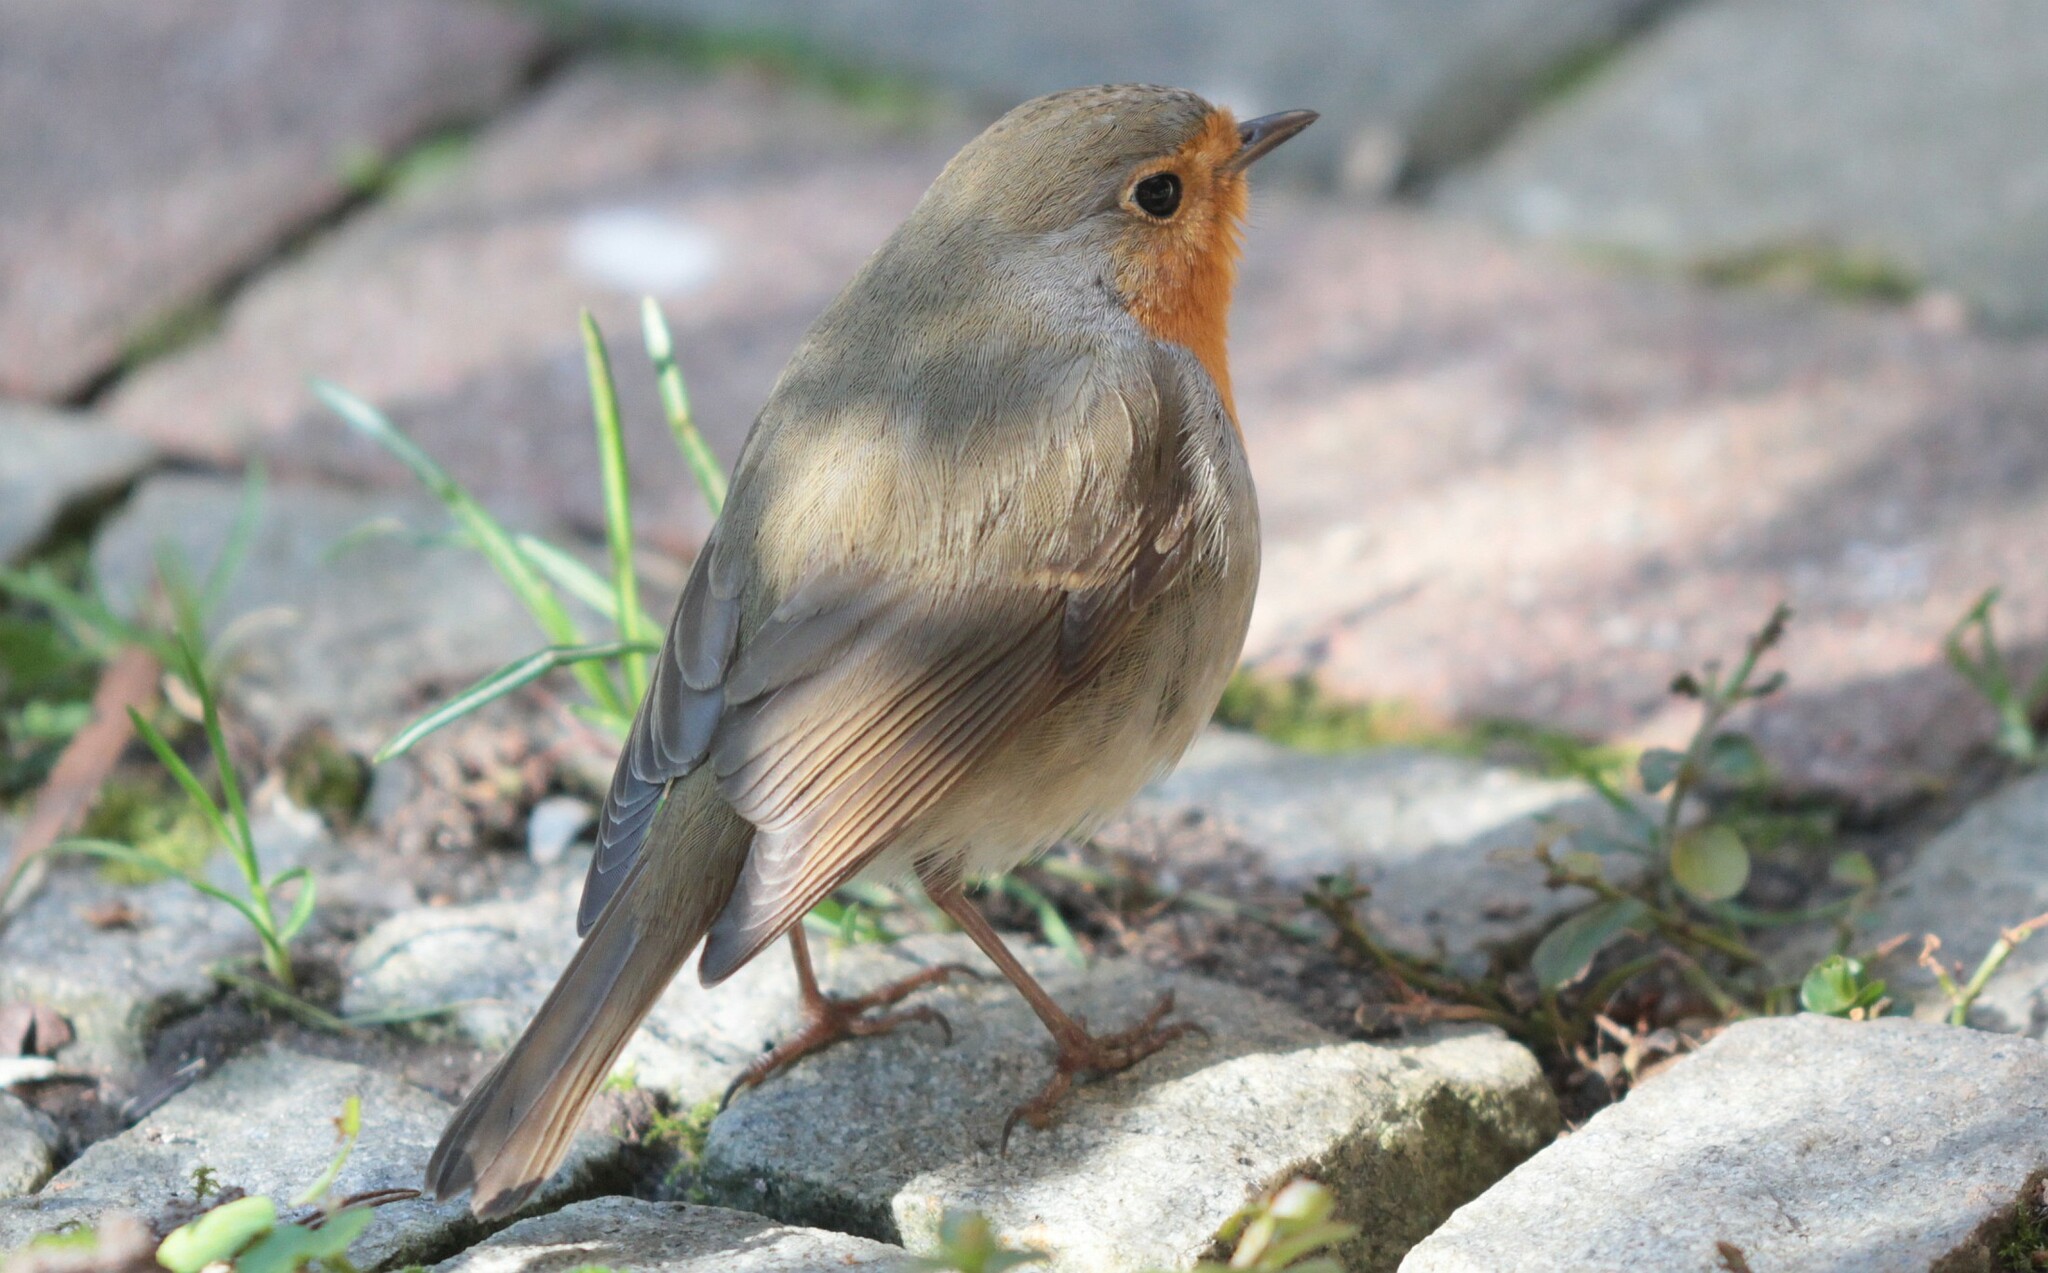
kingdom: Animalia
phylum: Chordata
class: Aves
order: Passeriformes
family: Muscicapidae
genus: Erithacus
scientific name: Erithacus rubecula
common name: European robin
